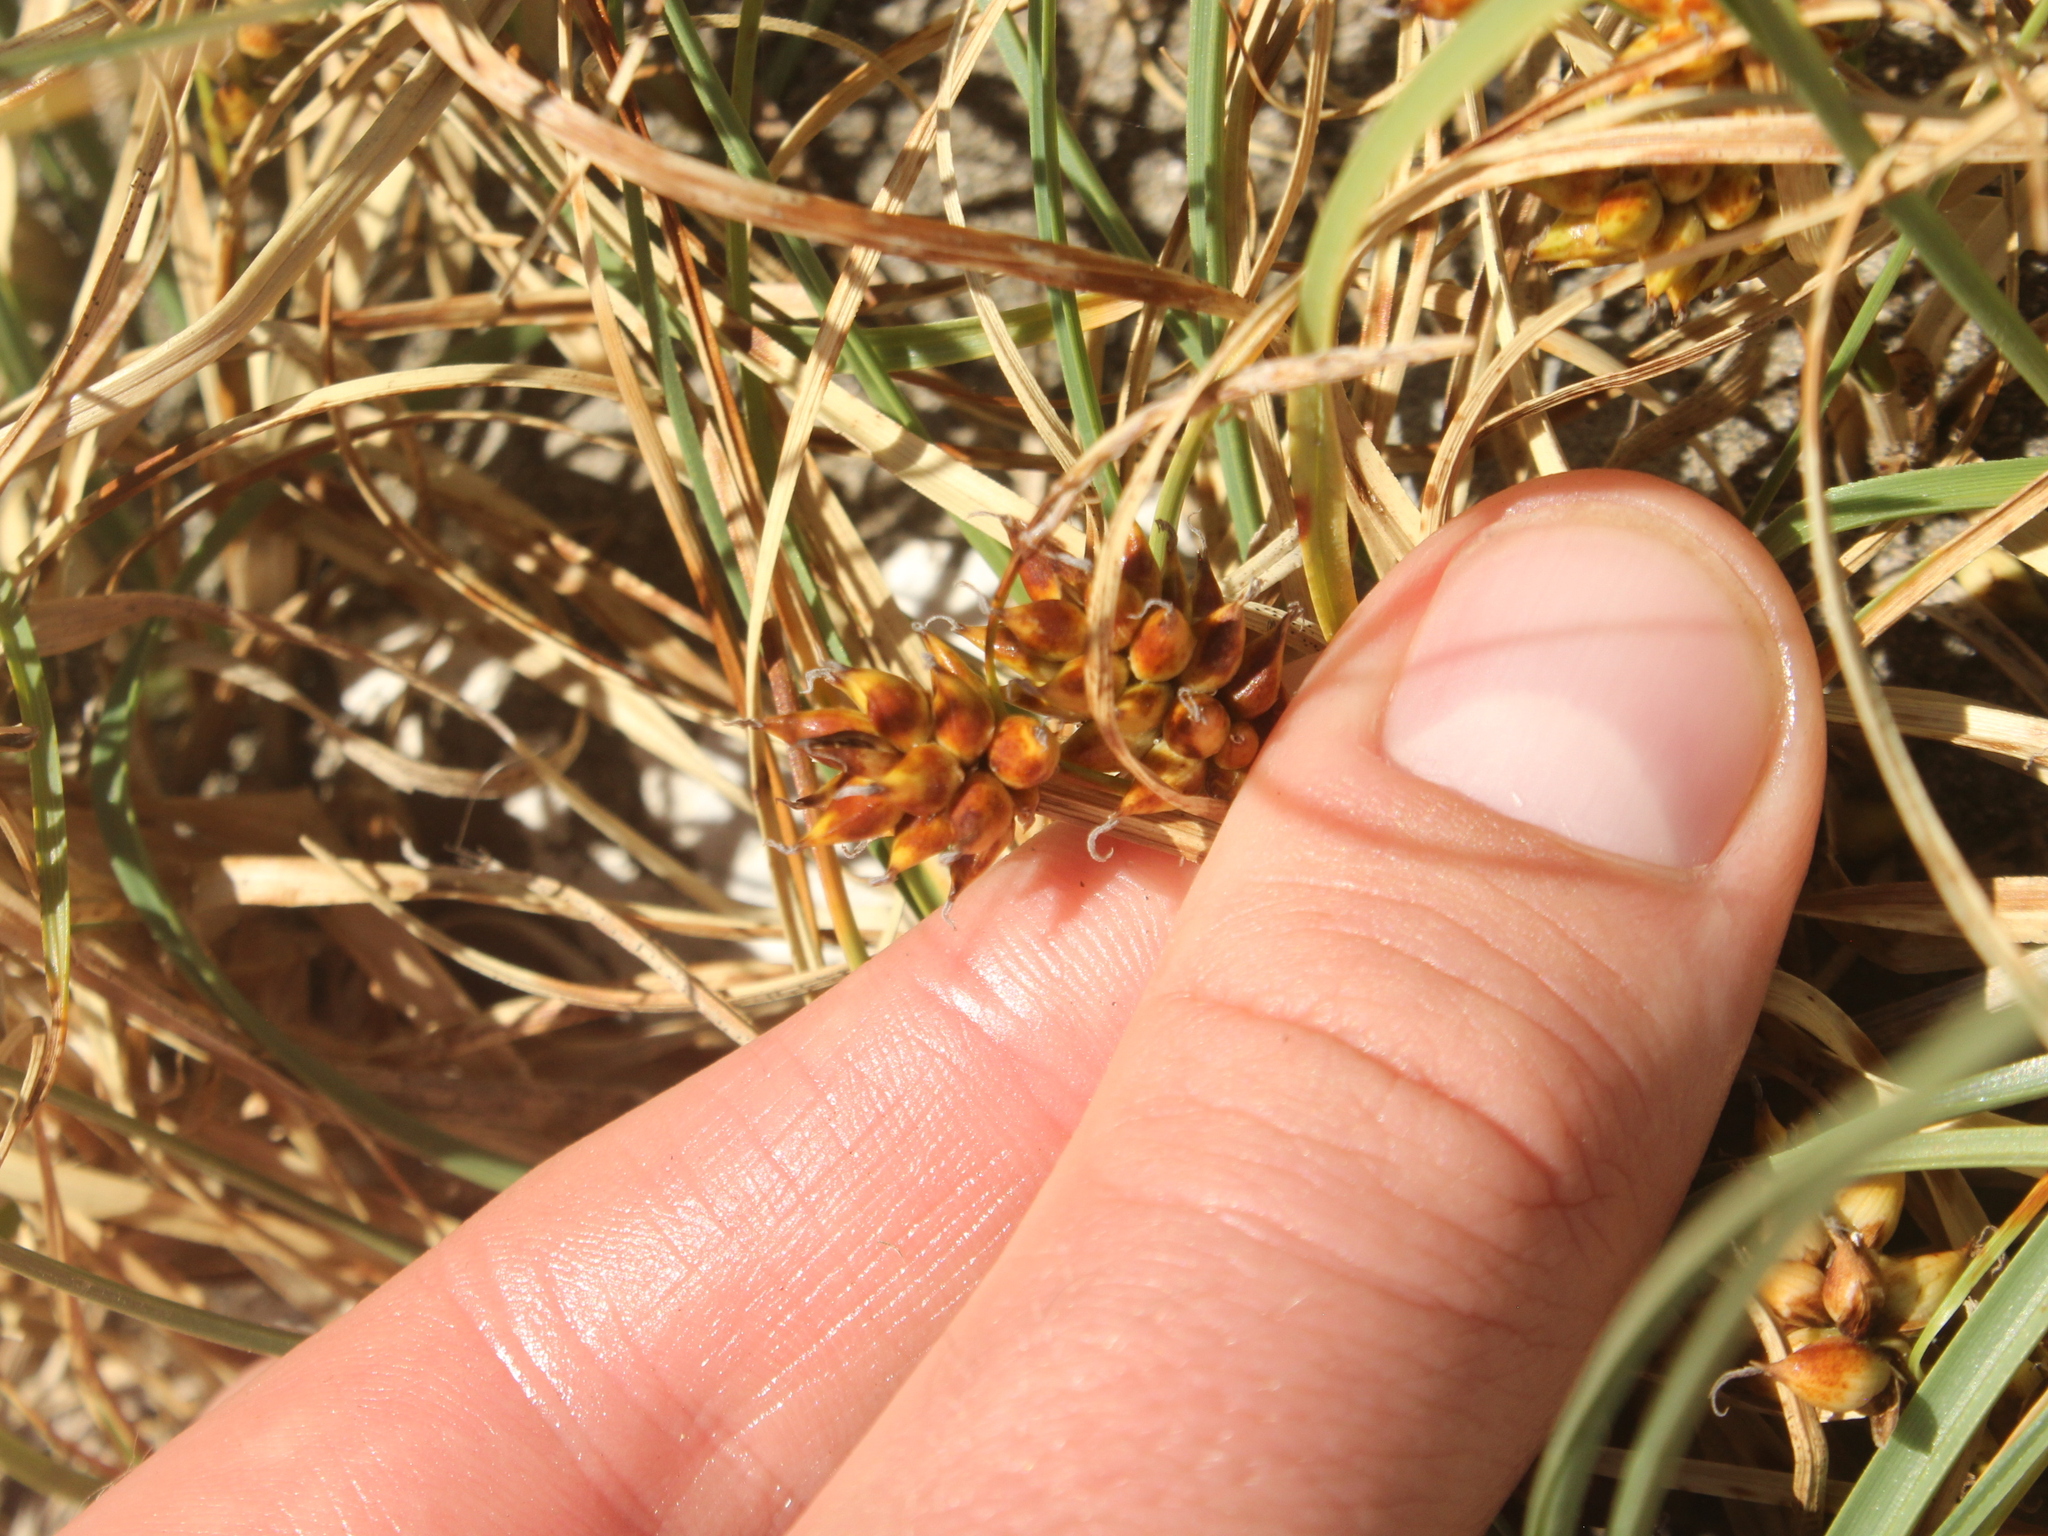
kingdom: Plantae
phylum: Tracheophyta
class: Liliopsida
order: Poales
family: Cyperaceae
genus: Carex
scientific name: Carex pumila
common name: Dwarf sedge
